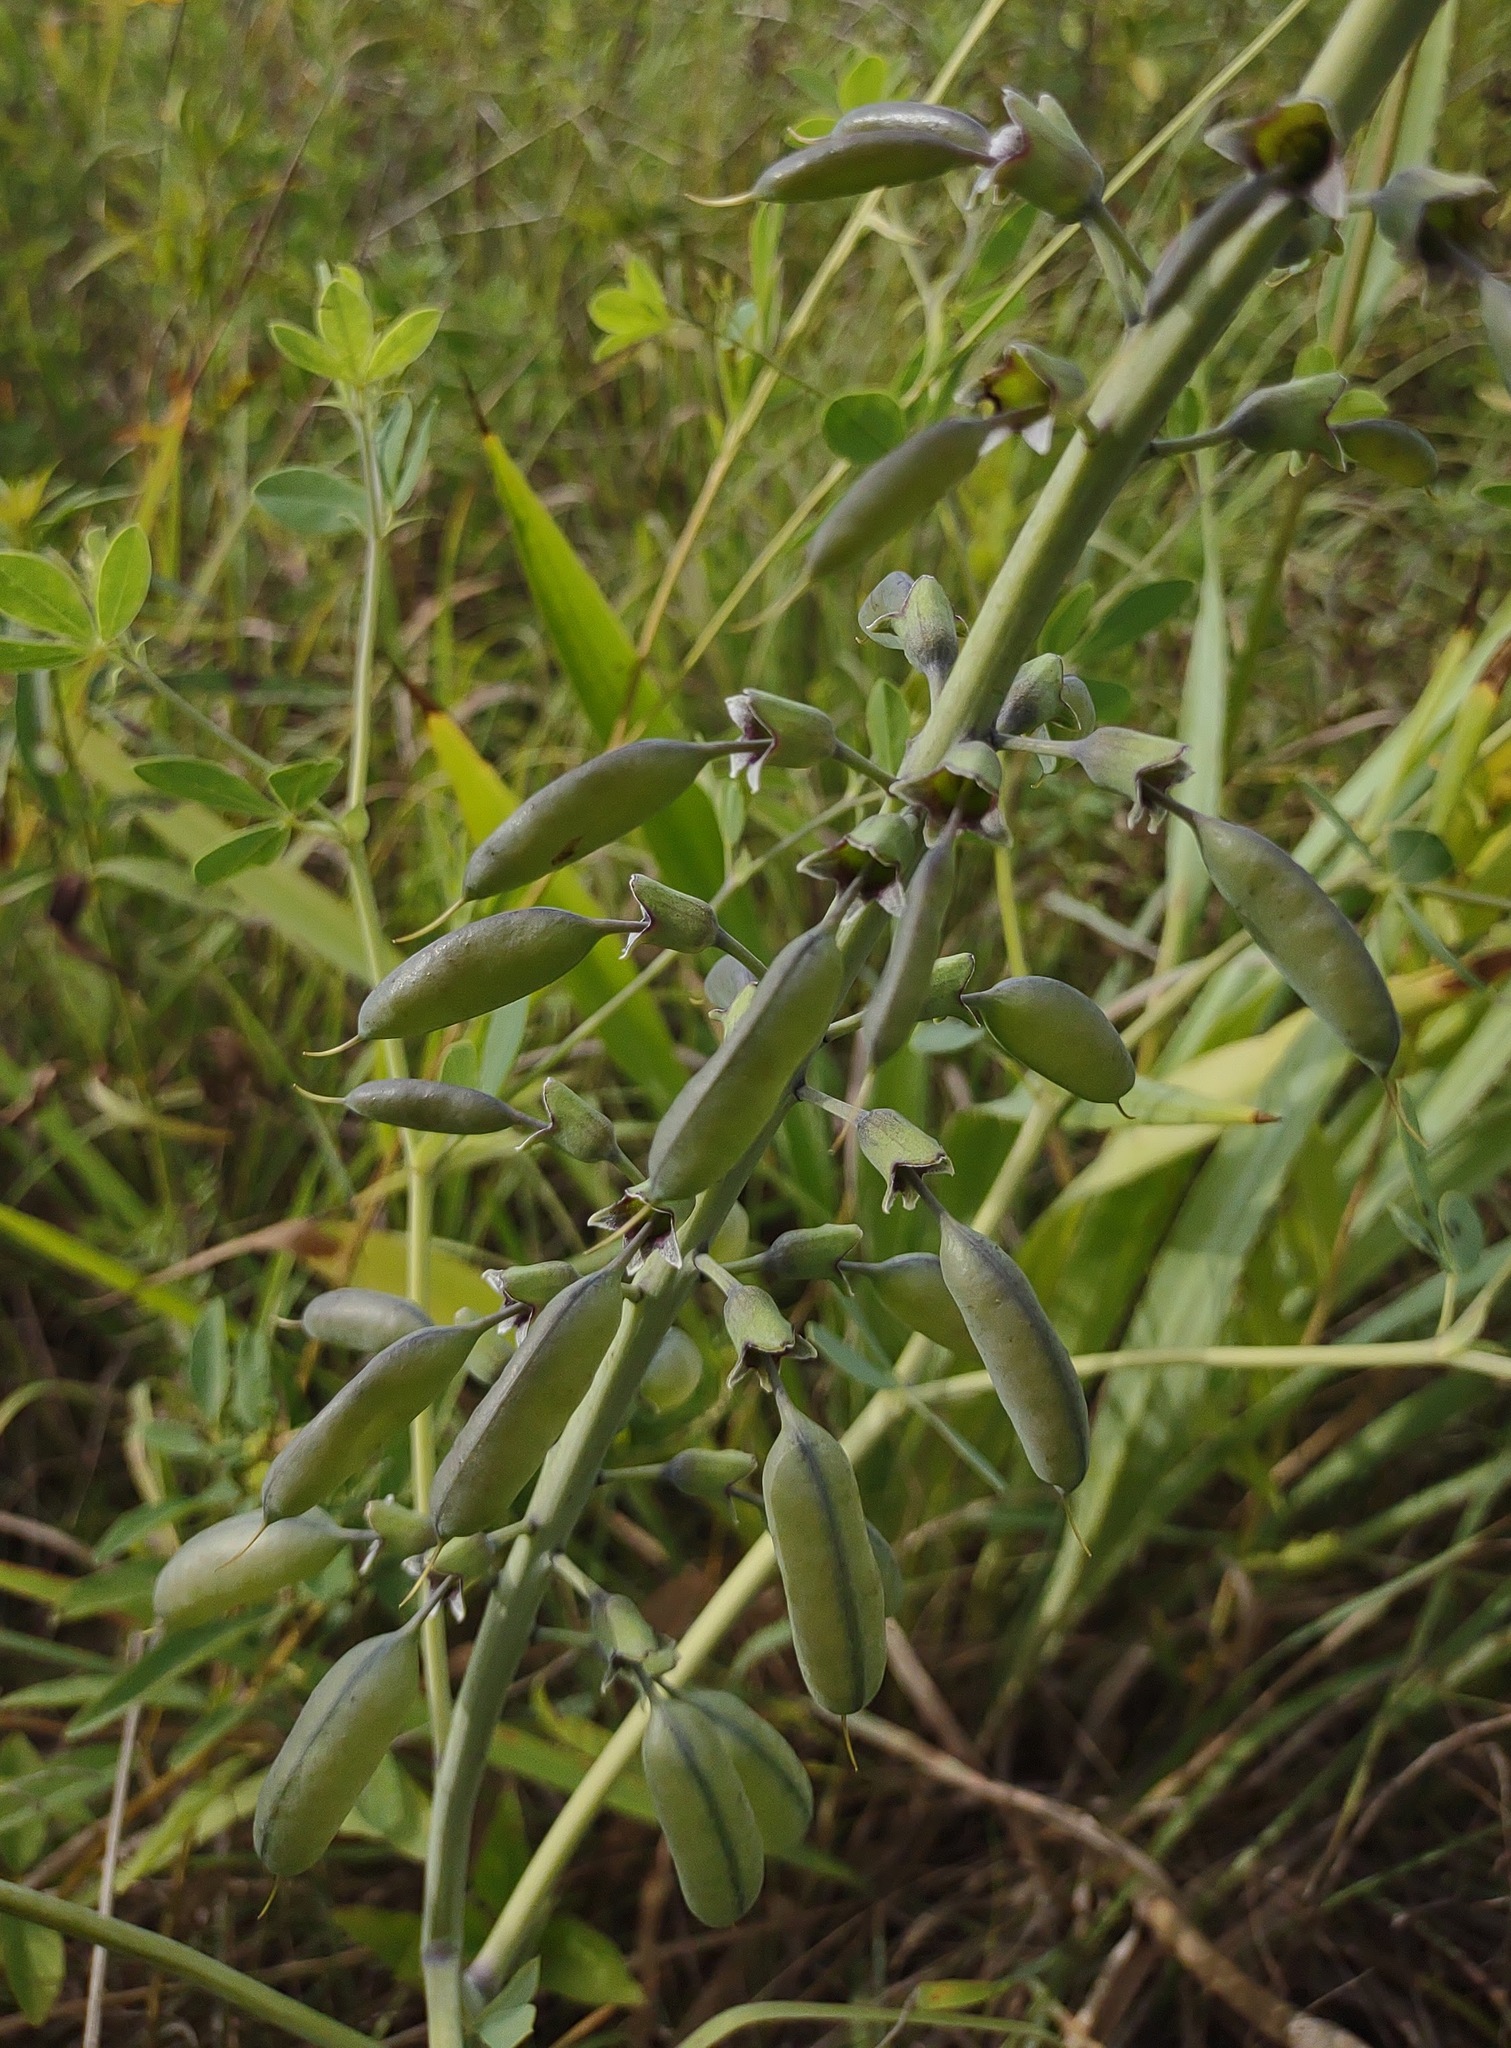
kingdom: Plantae
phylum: Tracheophyta
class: Magnoliopsida
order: Fabales
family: Fabaceae
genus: Baptisia
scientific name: Baptisia alba
